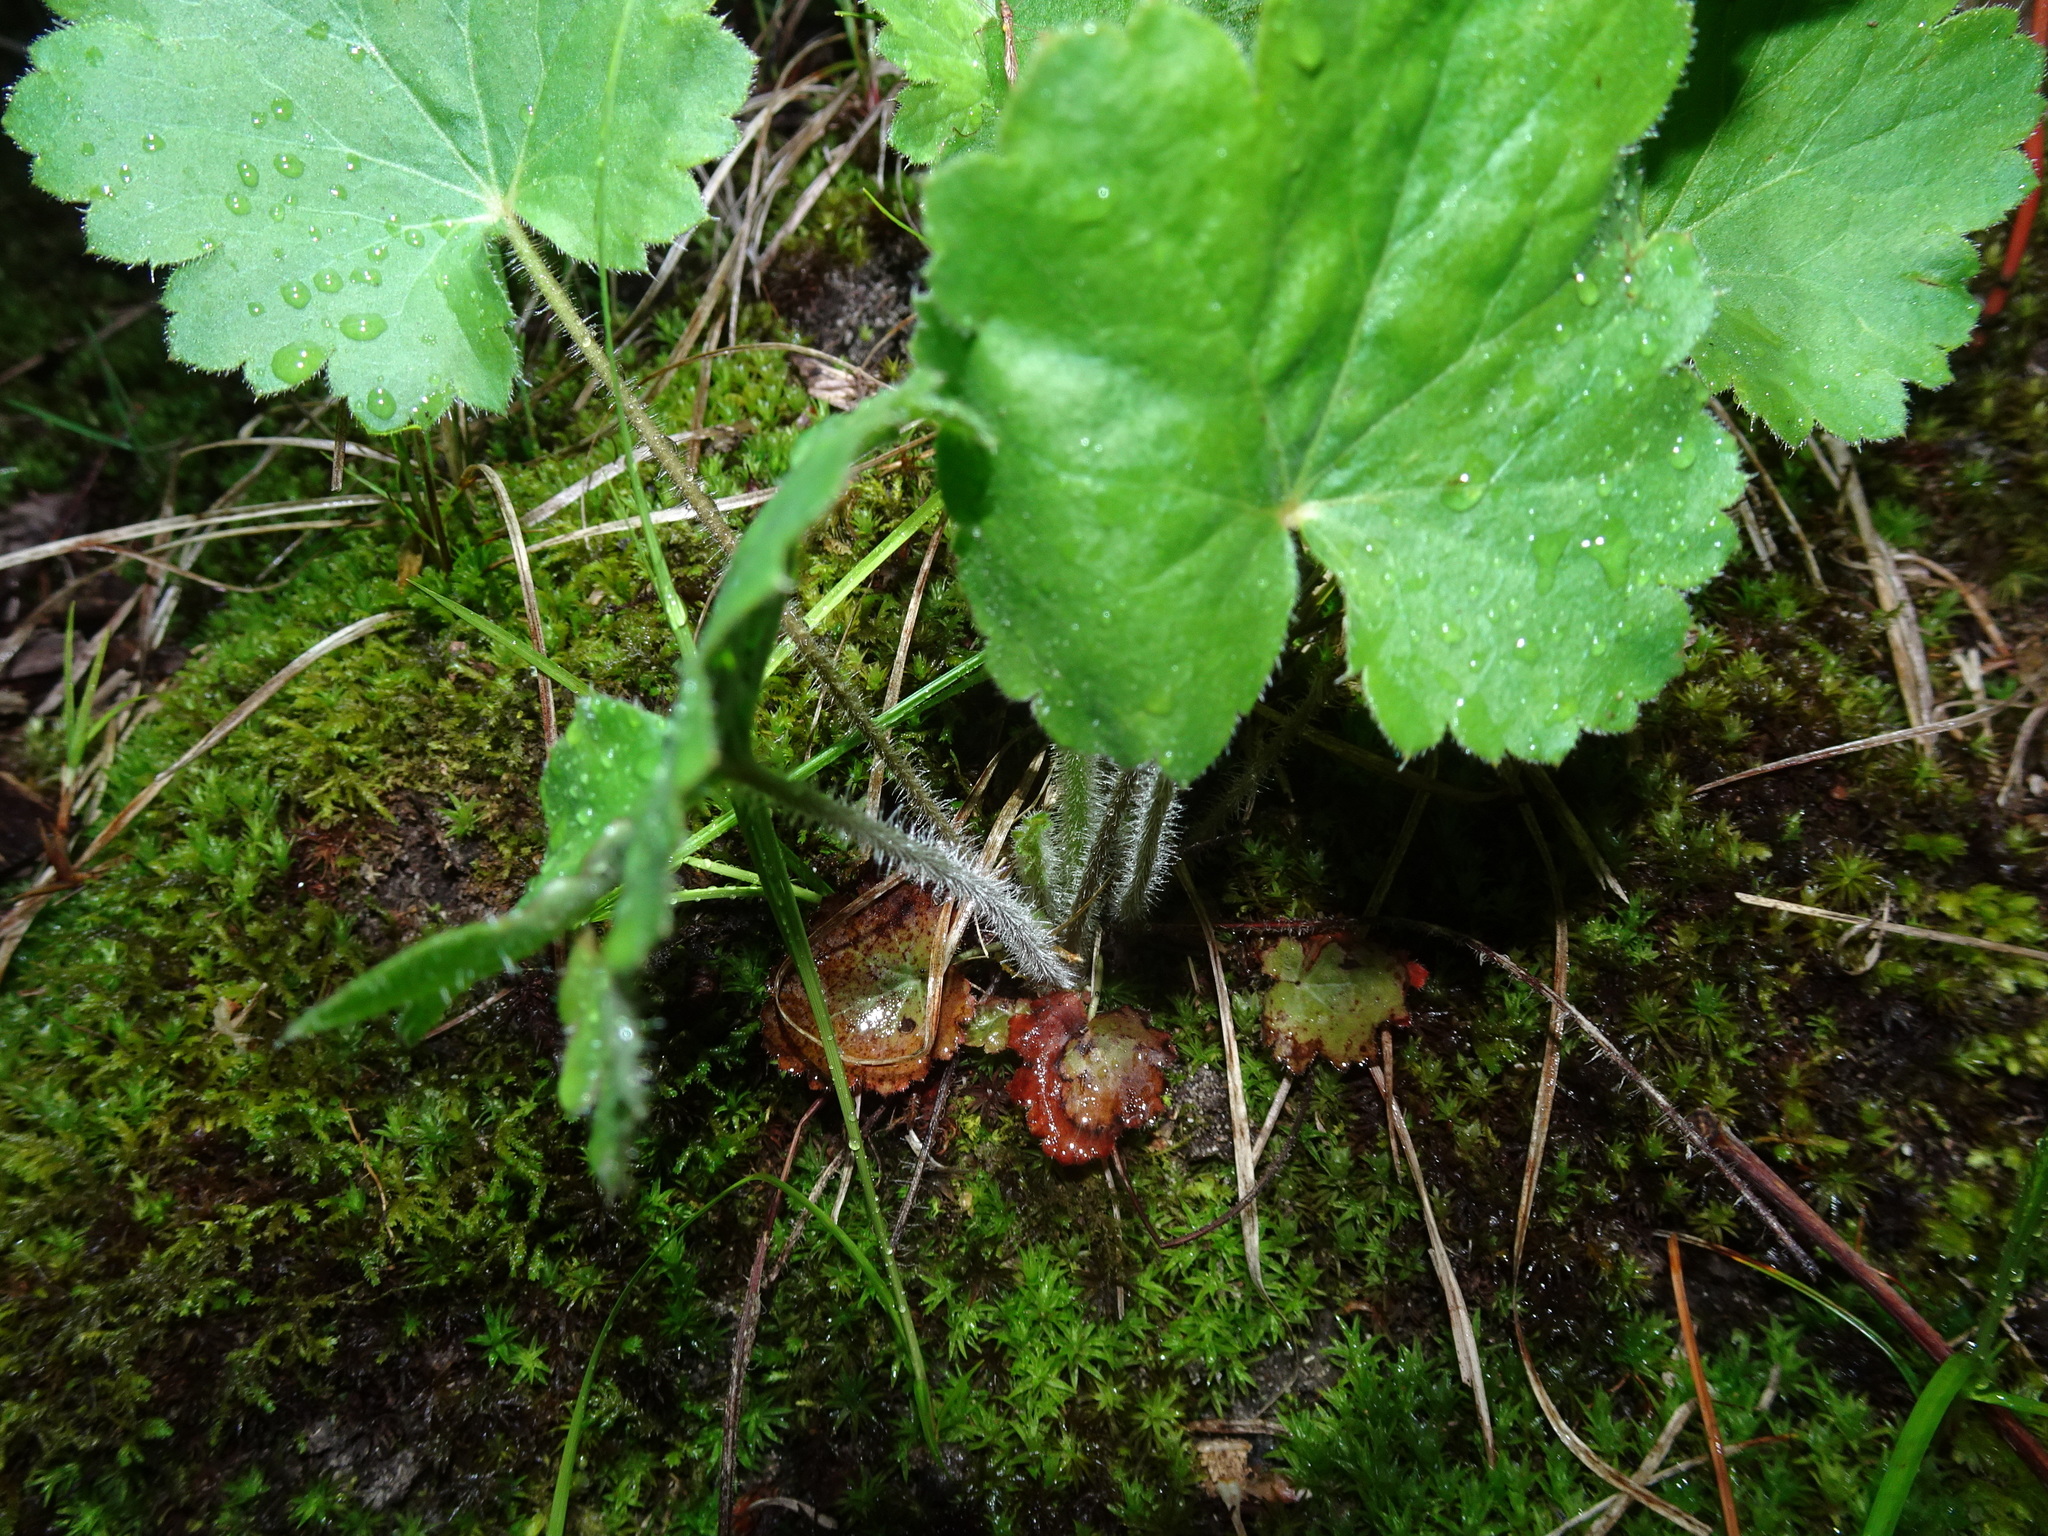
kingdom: Plantae
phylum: Tracheophyta
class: Magnoliopsida
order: Saxifragales
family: Saxifragaceae
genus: Heuchera
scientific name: Heuchera americana
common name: Alumroot
